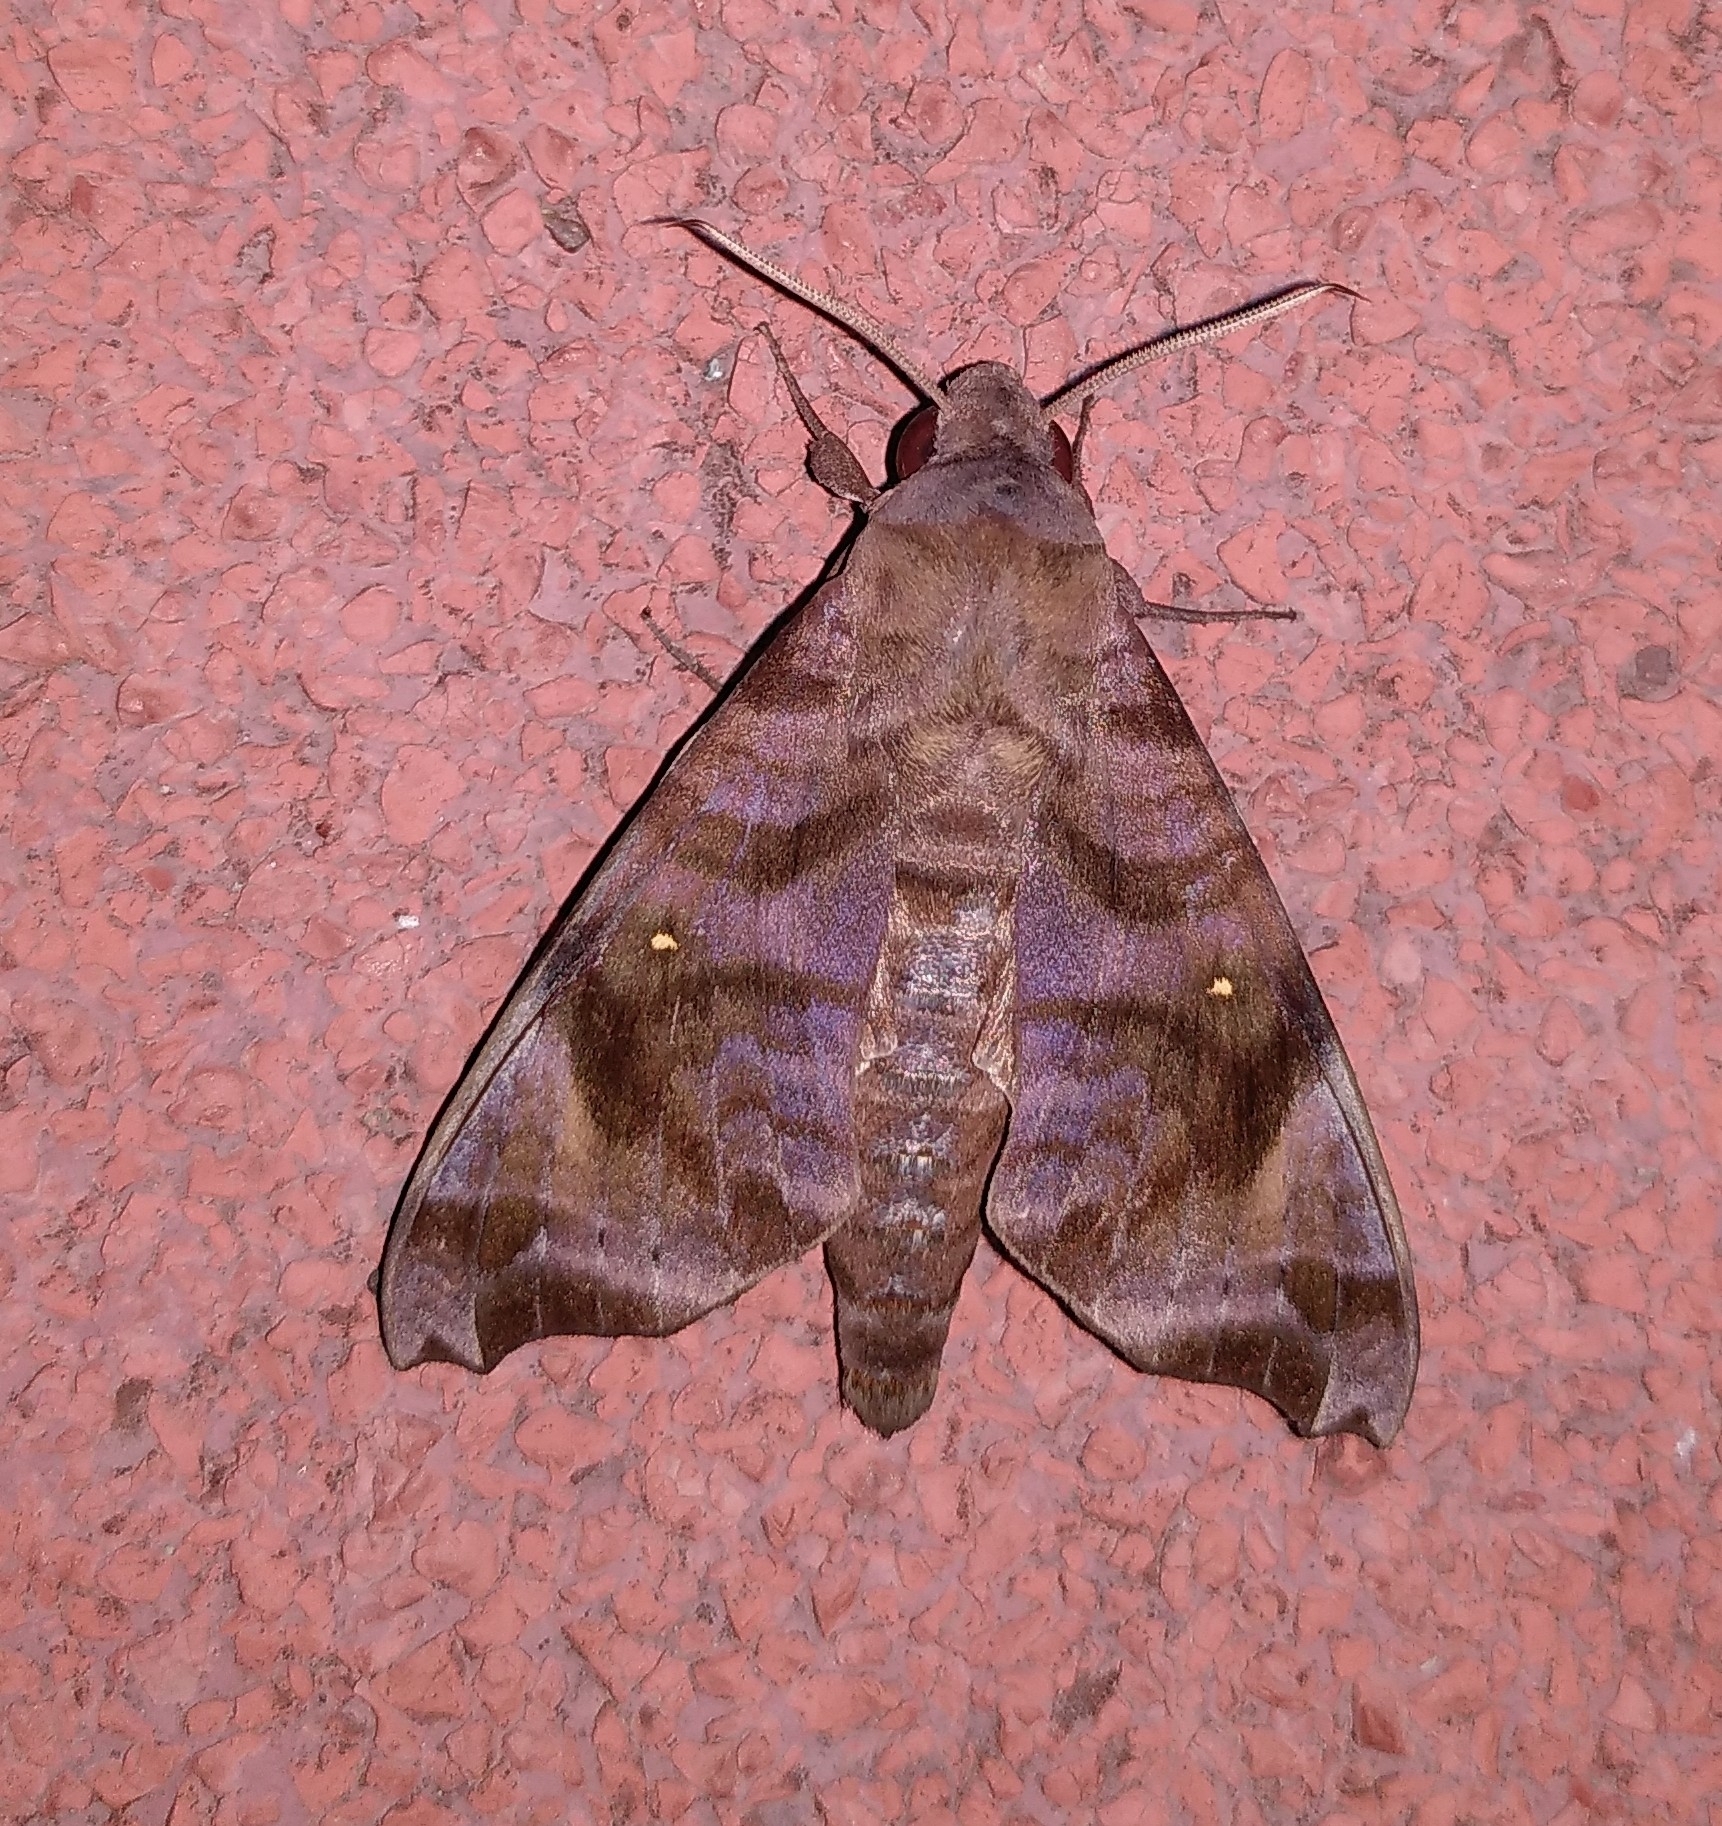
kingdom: Animalia
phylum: Arthropoda
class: Insecta
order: Lepidoptera
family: Sphingidae
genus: Acosmeryx
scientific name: Acosmeryx anceus
